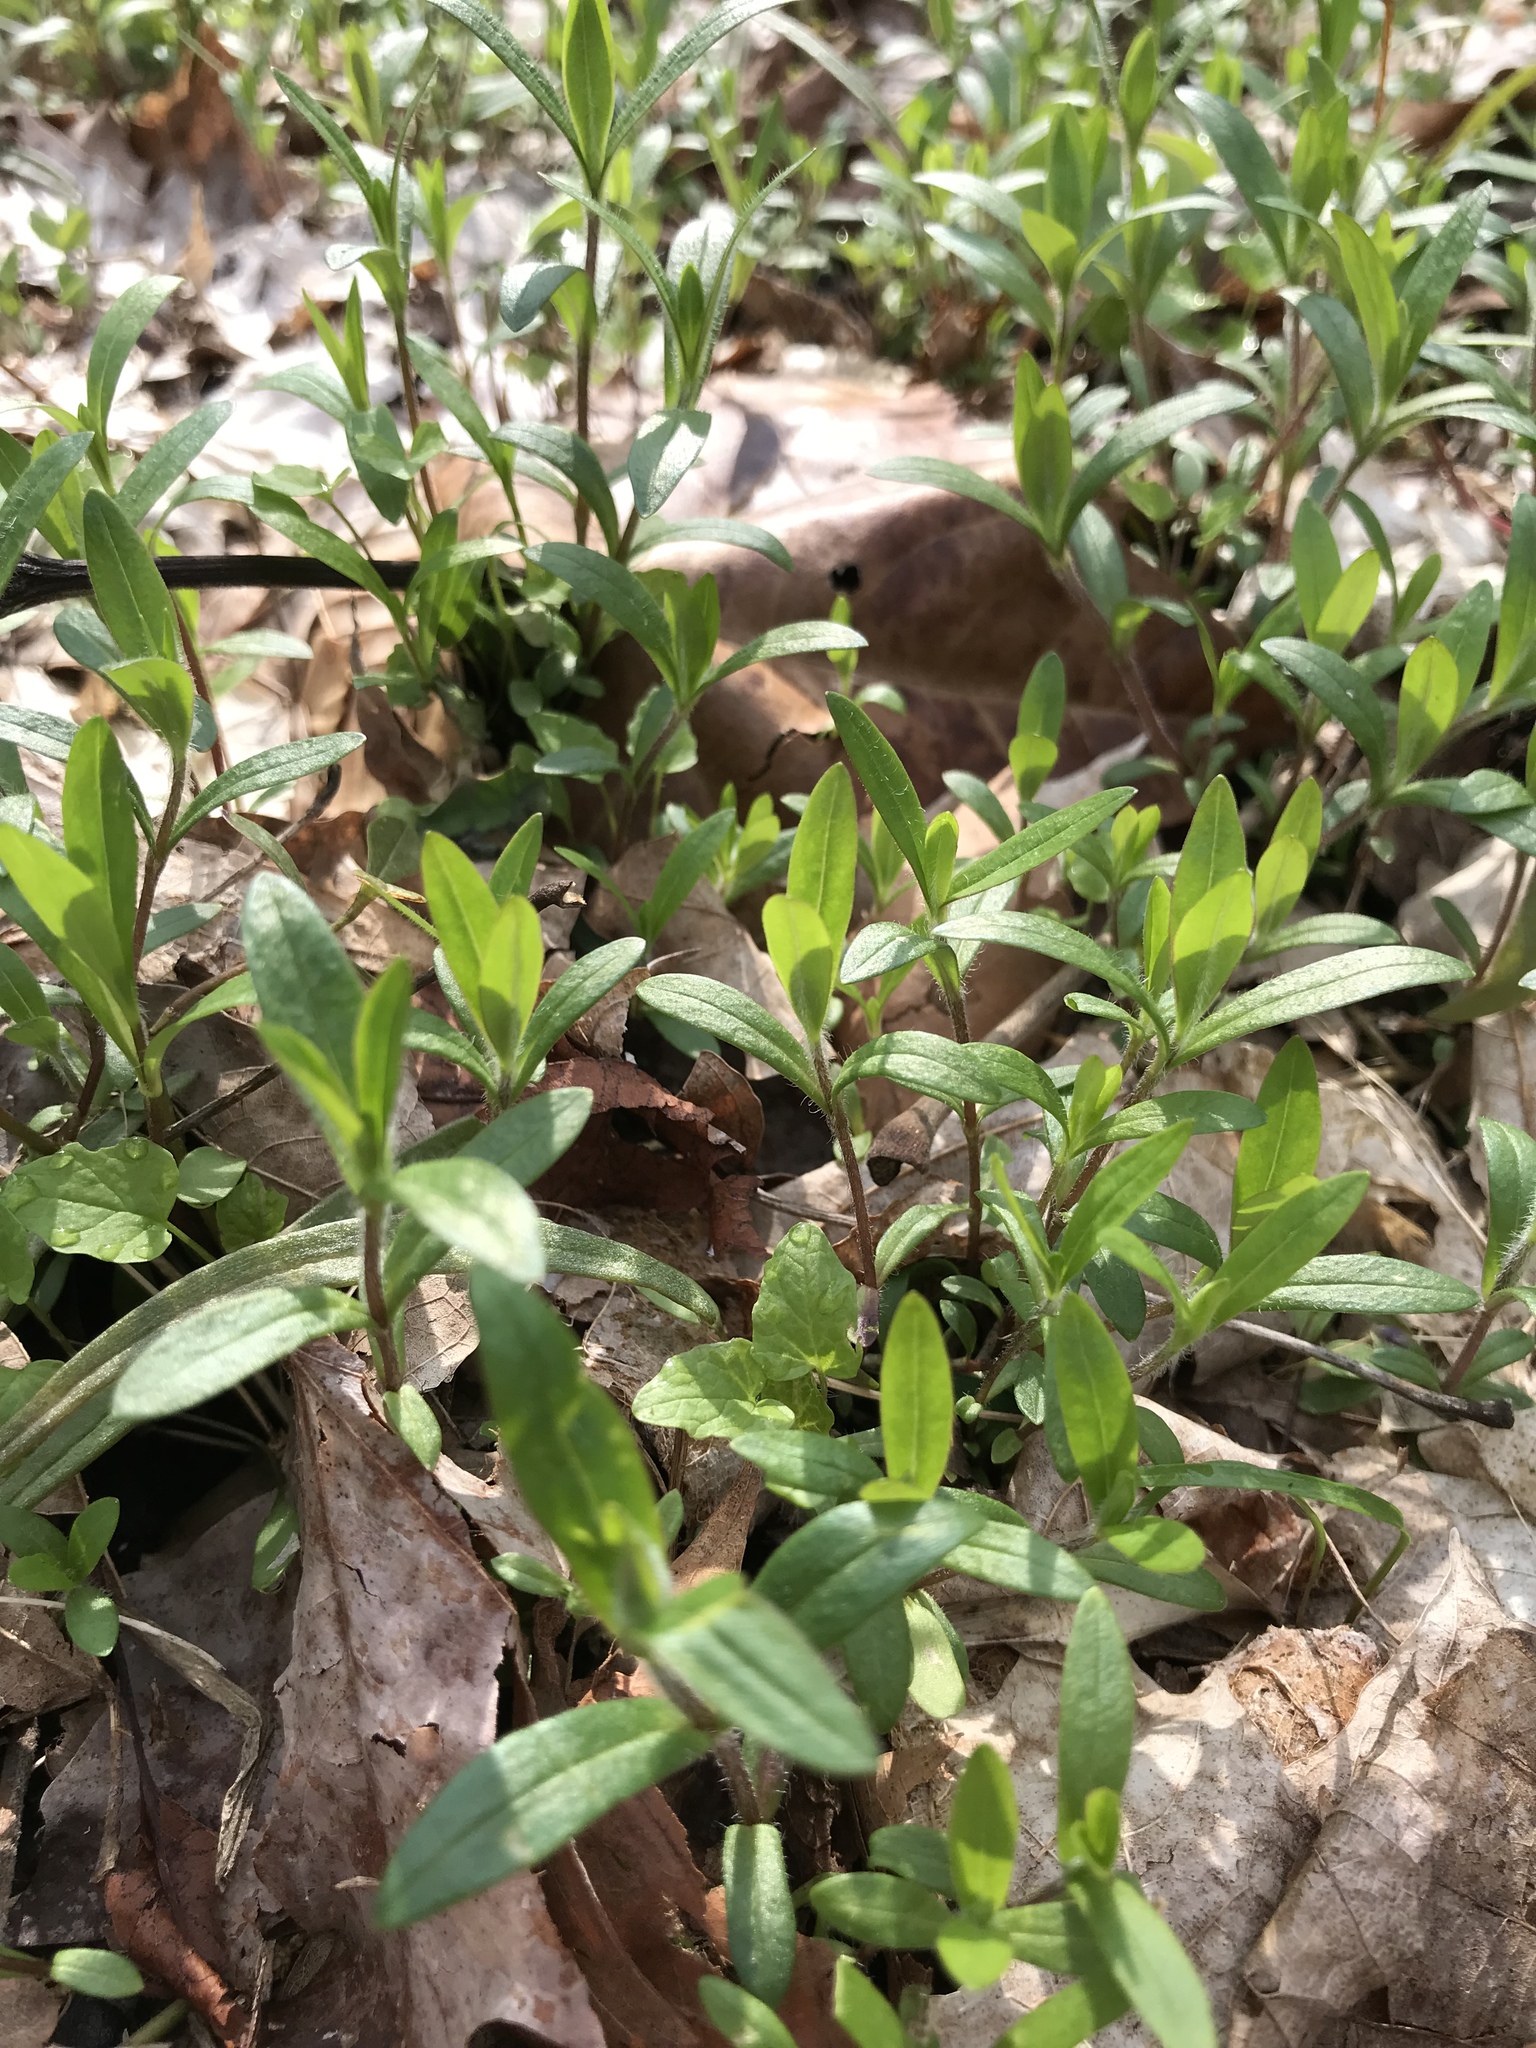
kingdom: Plantae
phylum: Tracheophyta
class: Magnoliopsida
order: Ericales
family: Polemoniaceae
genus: Phlox
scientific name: Phlox divaricata
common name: Blue phlox
